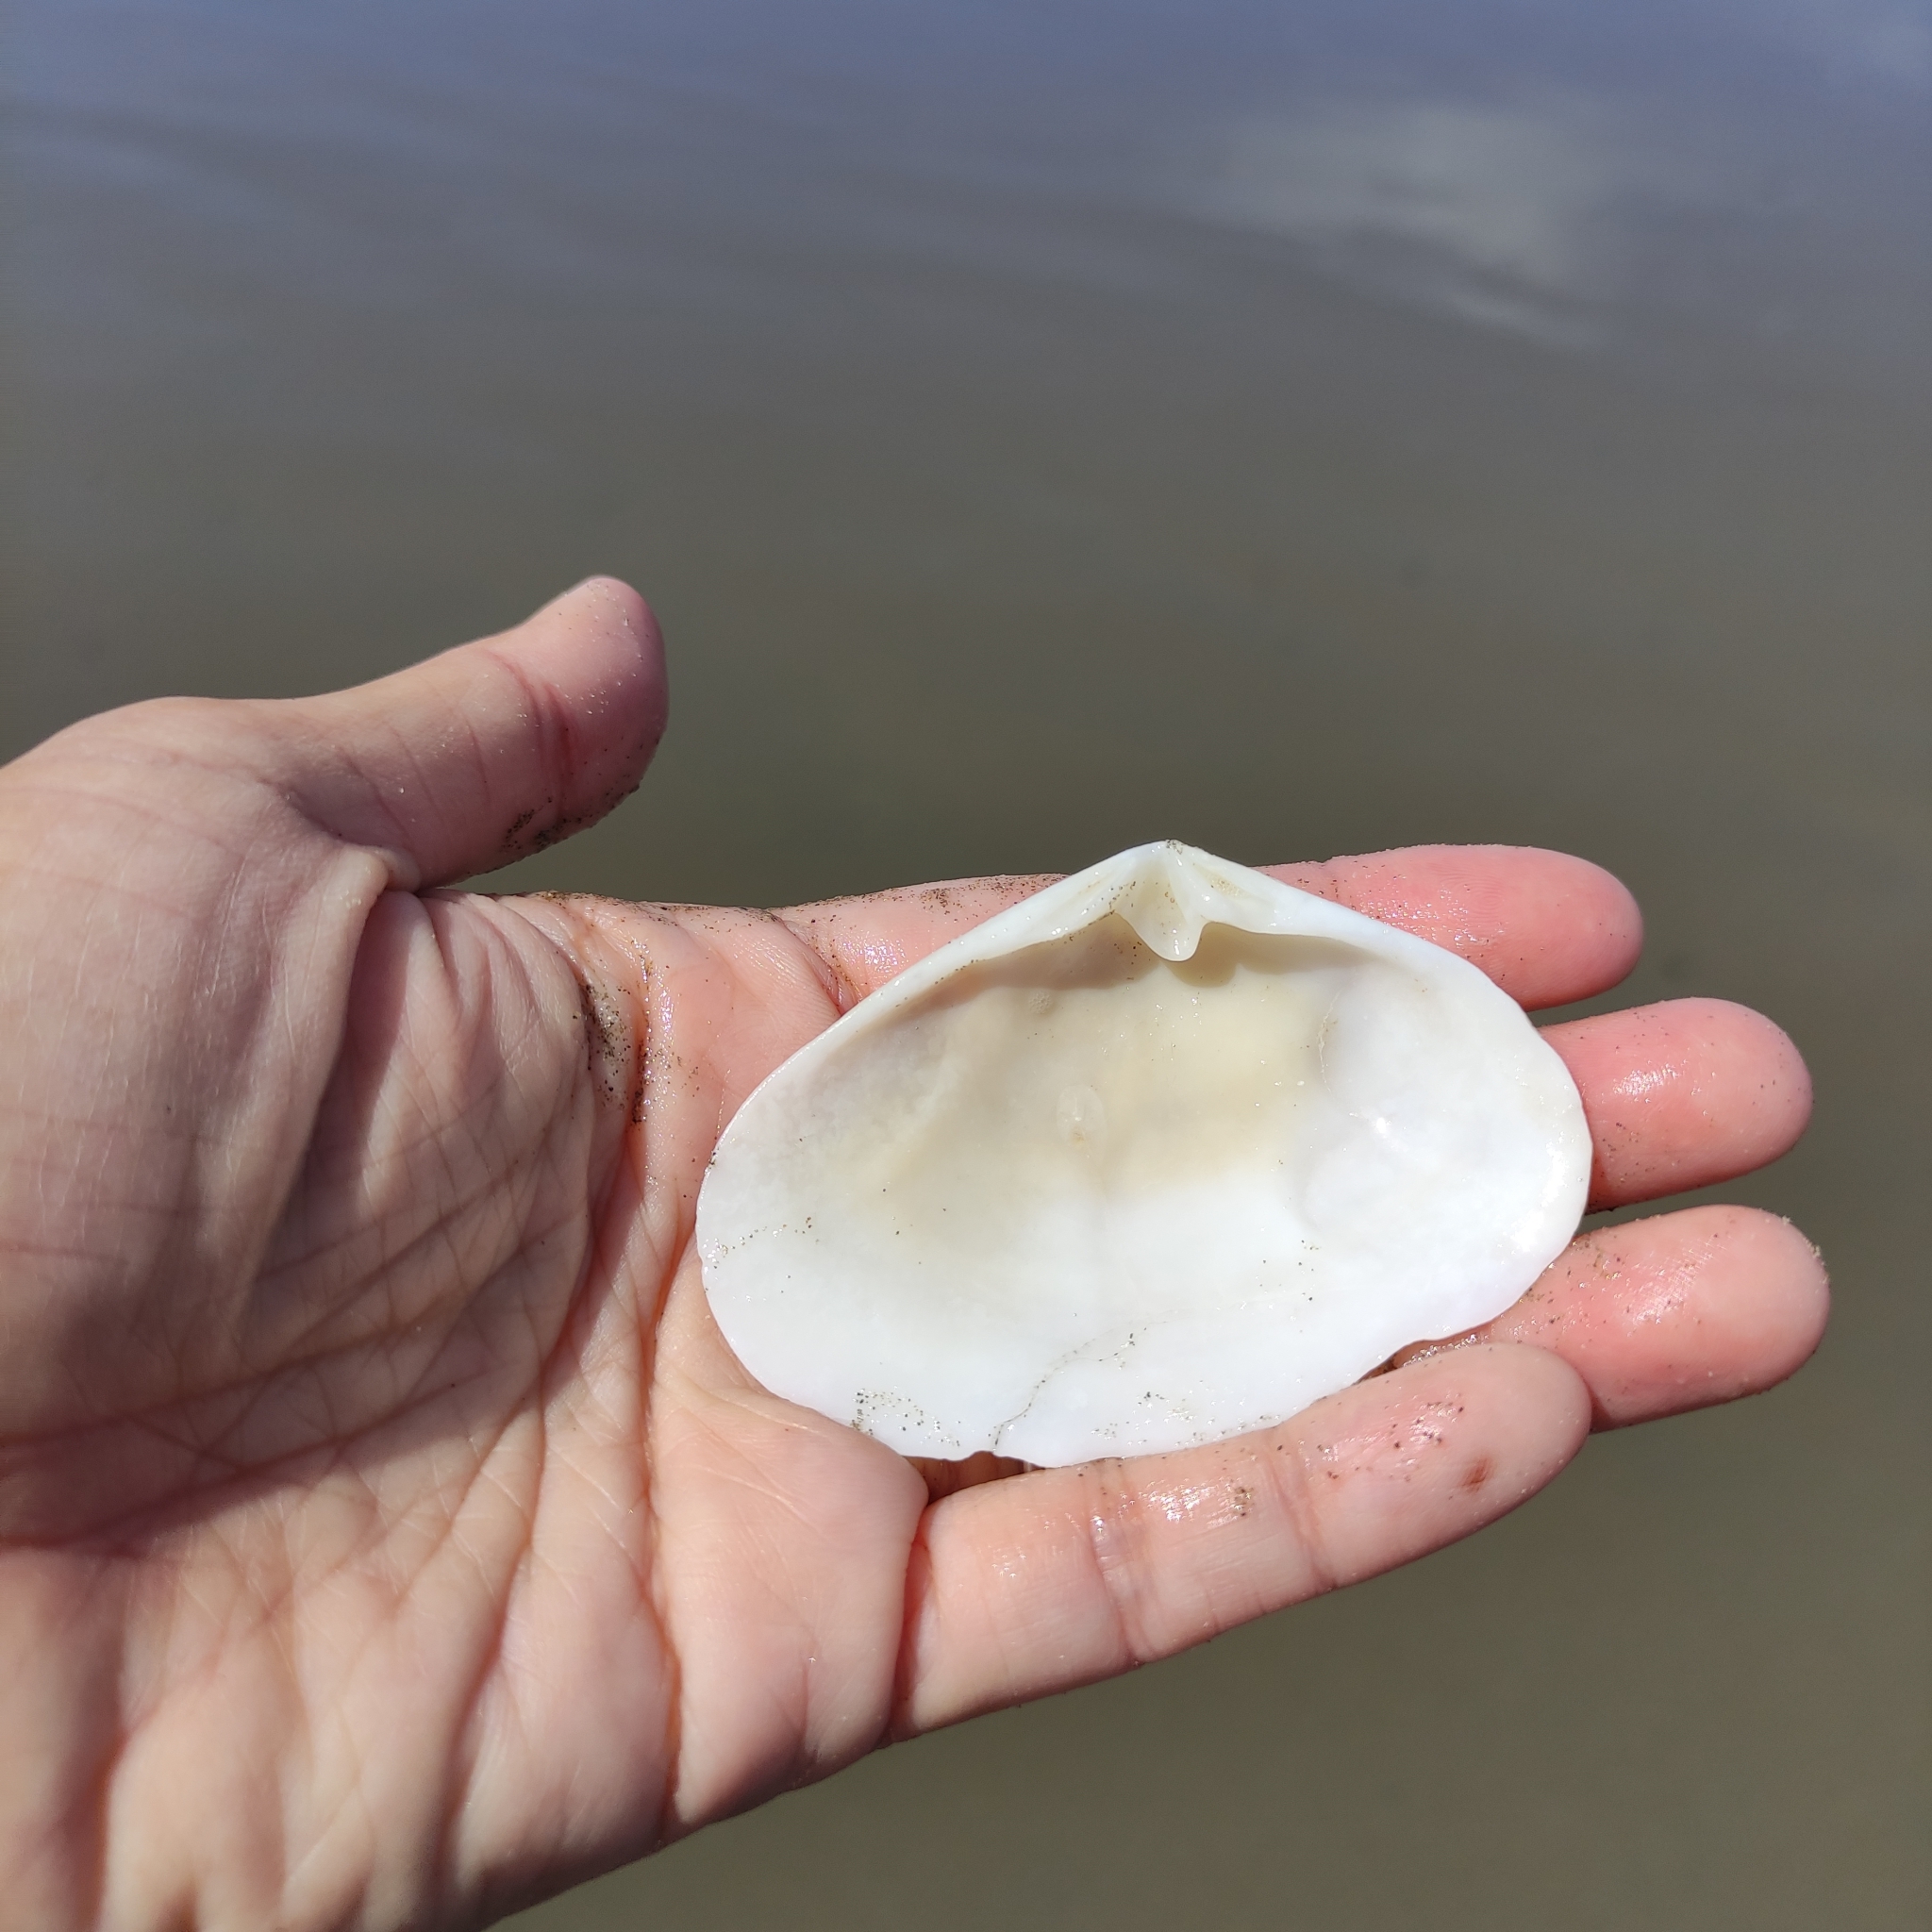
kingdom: Animalia
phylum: Mollusca
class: Bivalvia
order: Venerida
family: Mesodesmatidae
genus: Paphies
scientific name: Paphies donacina
